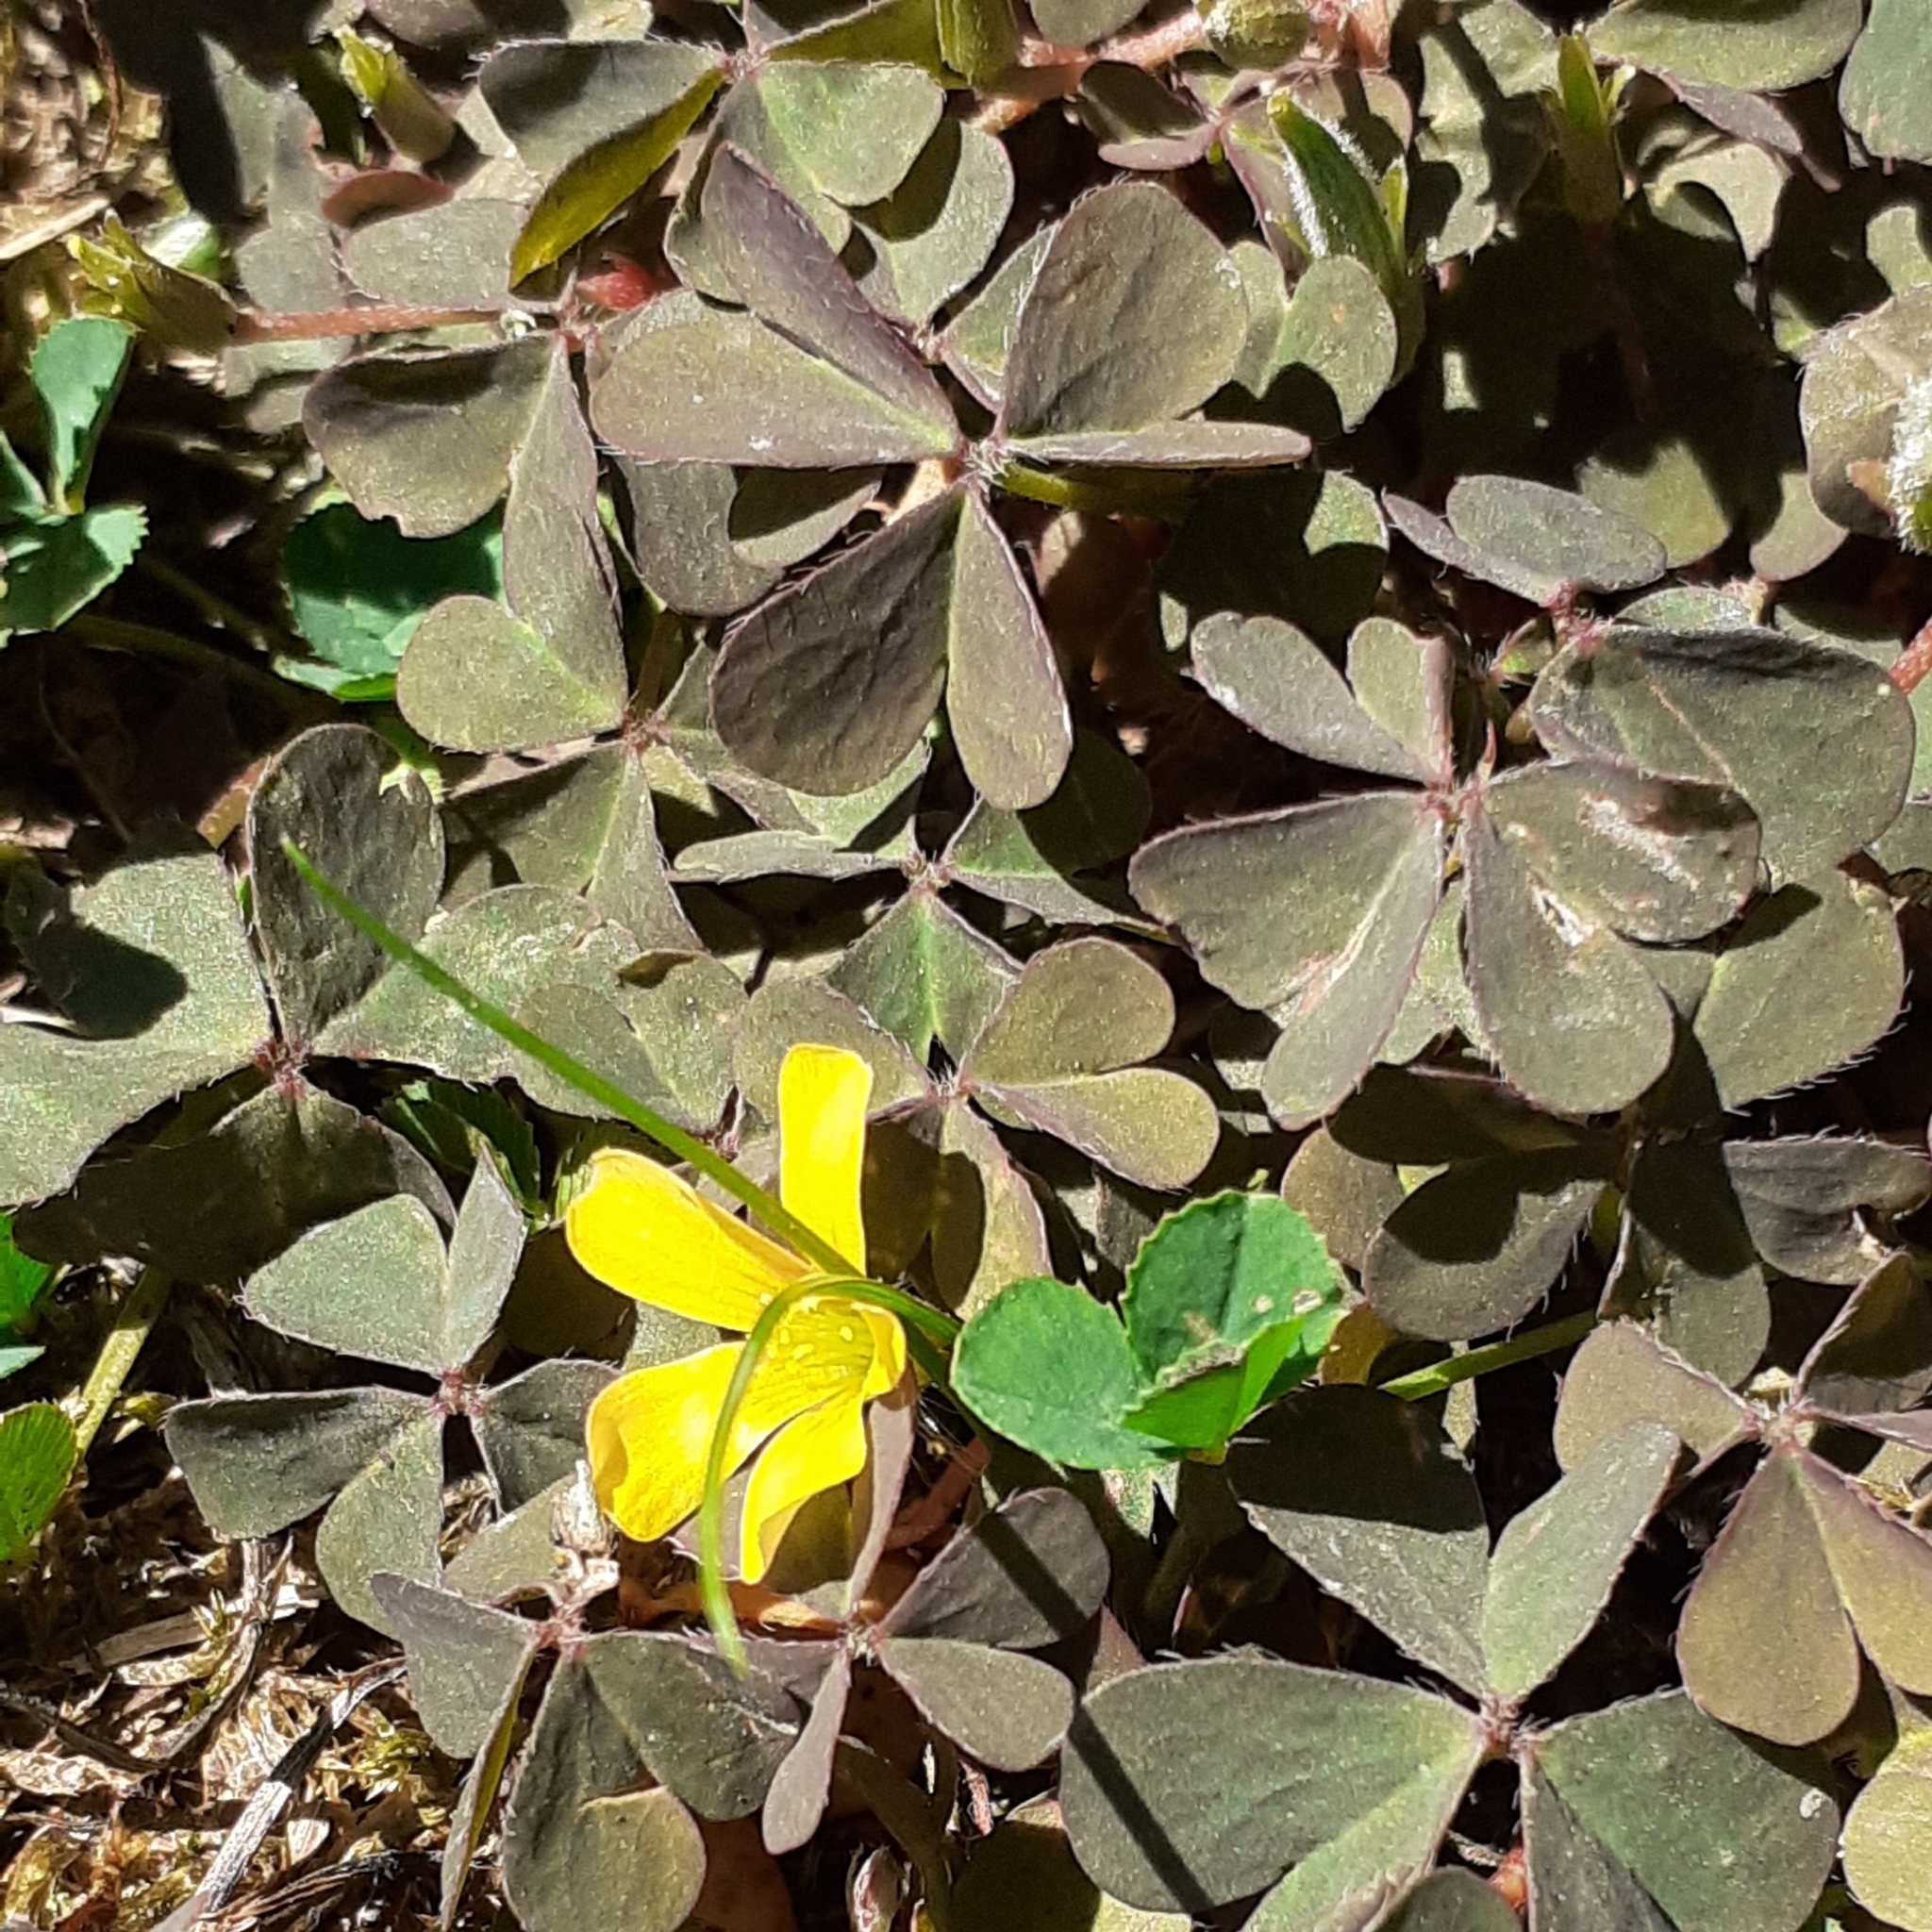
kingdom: Plantae
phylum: Tracheophyta
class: Magnoliopsida
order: Oxalidales
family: Oxalidaceae
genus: Oxalis
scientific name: Oxalis corniculata
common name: Procumbent yellow-sorrel
